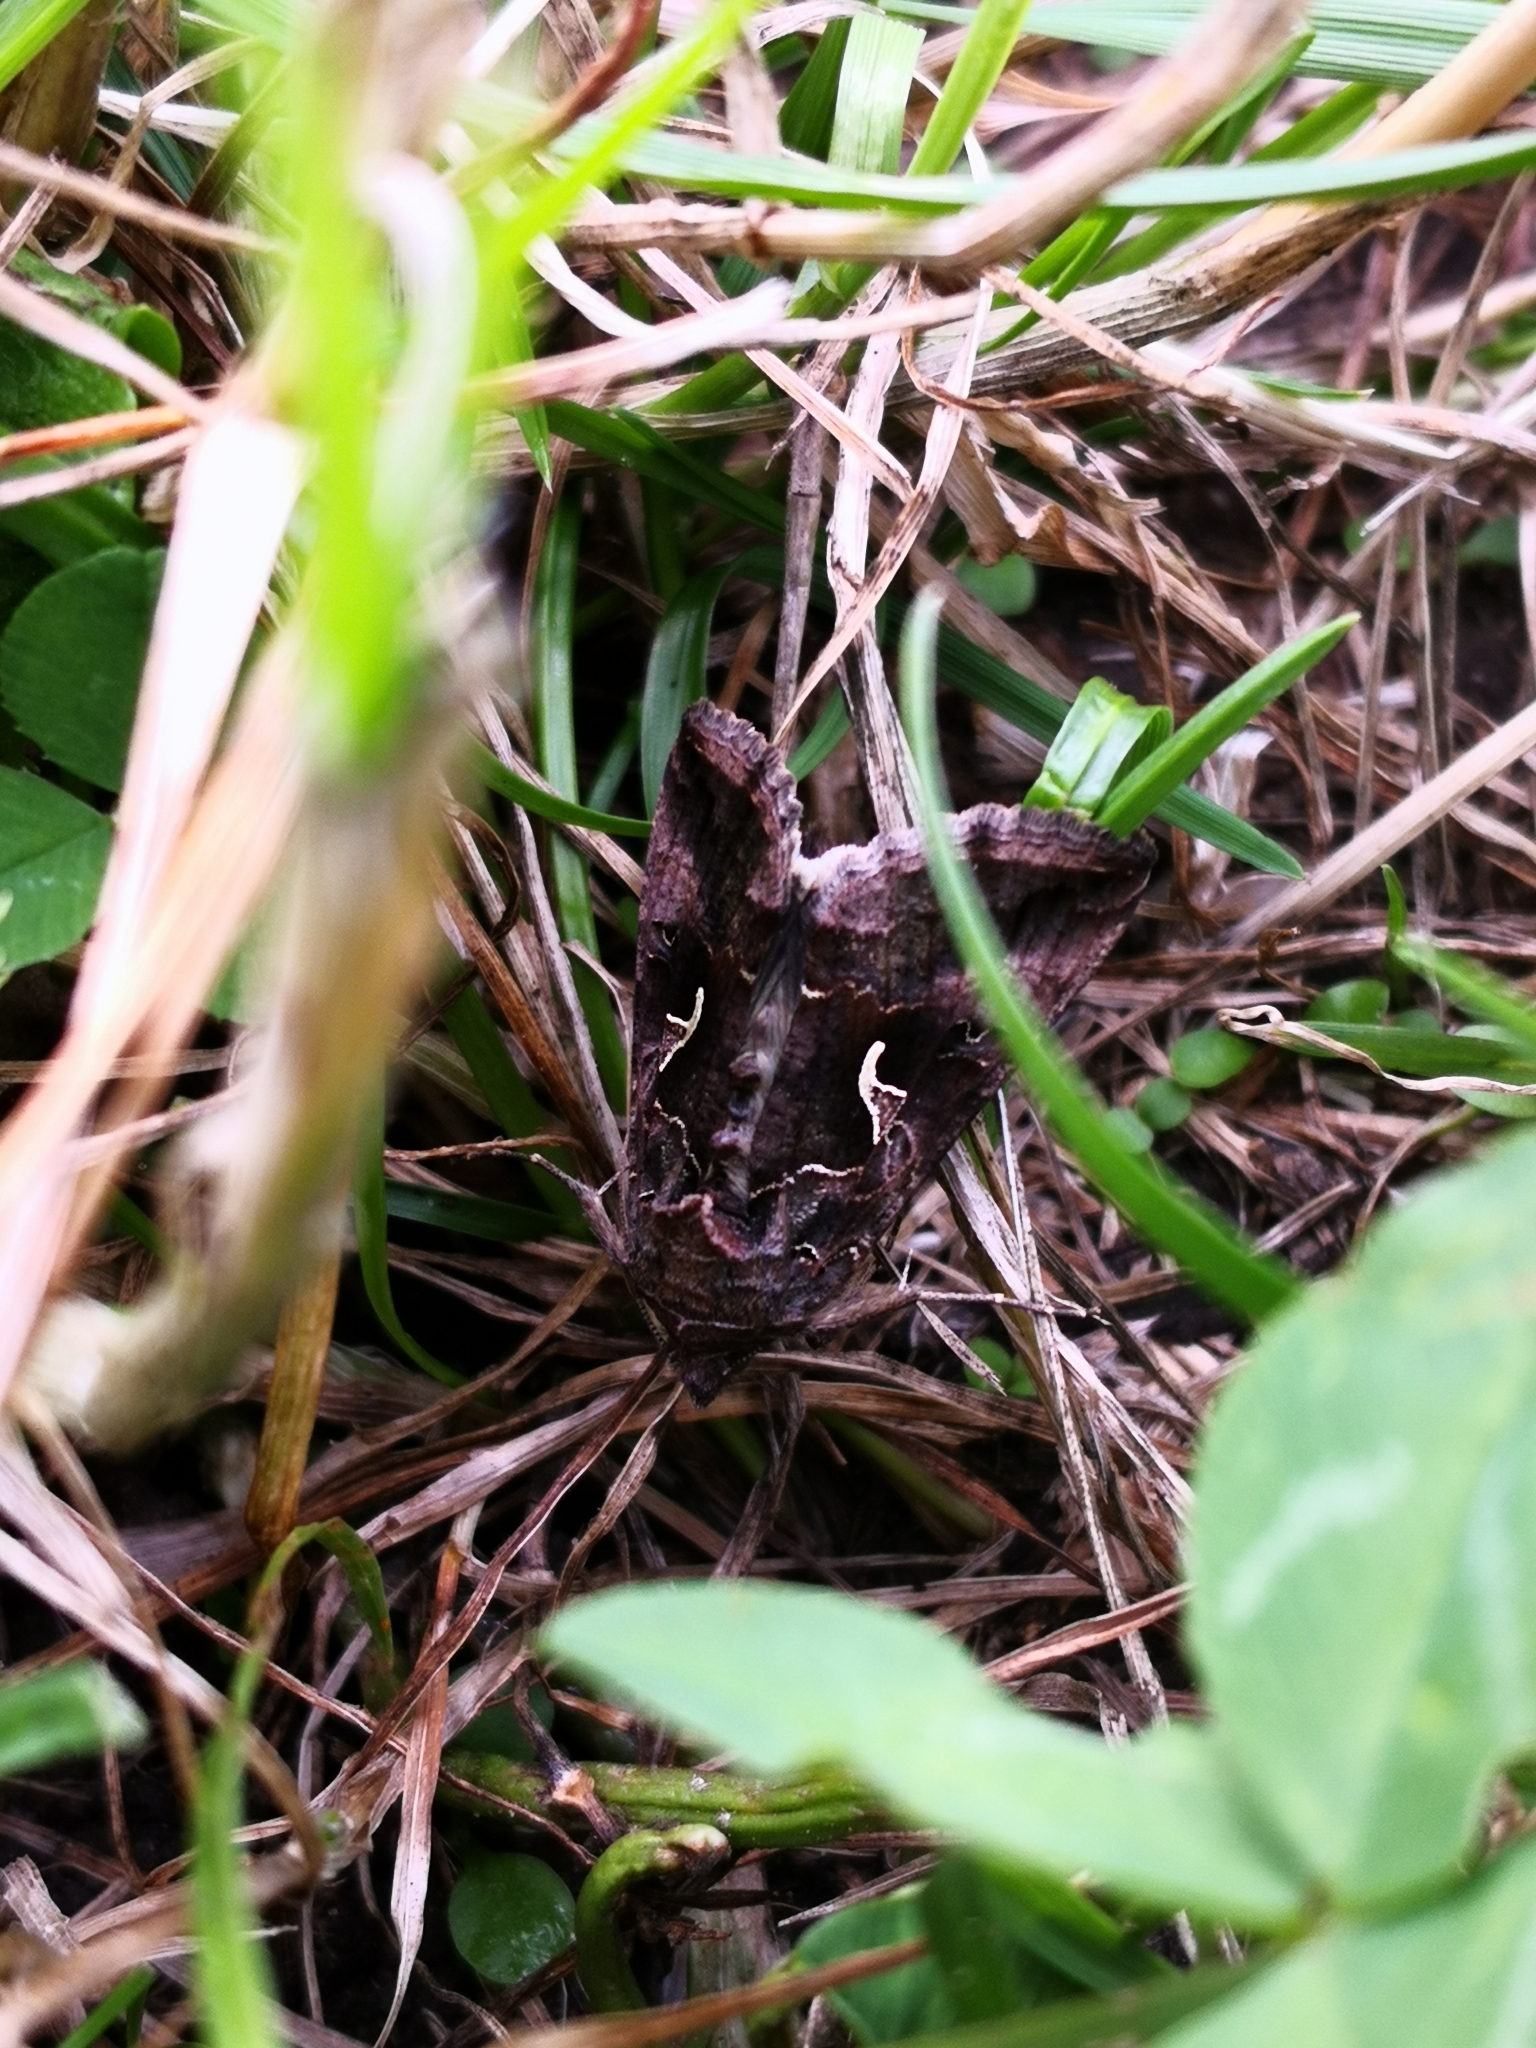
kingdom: Animalia
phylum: Arthropoda
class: Insecta
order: Lepidoptera
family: Noctuidae
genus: Autographa
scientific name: Autographa gamma
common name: Silver y
